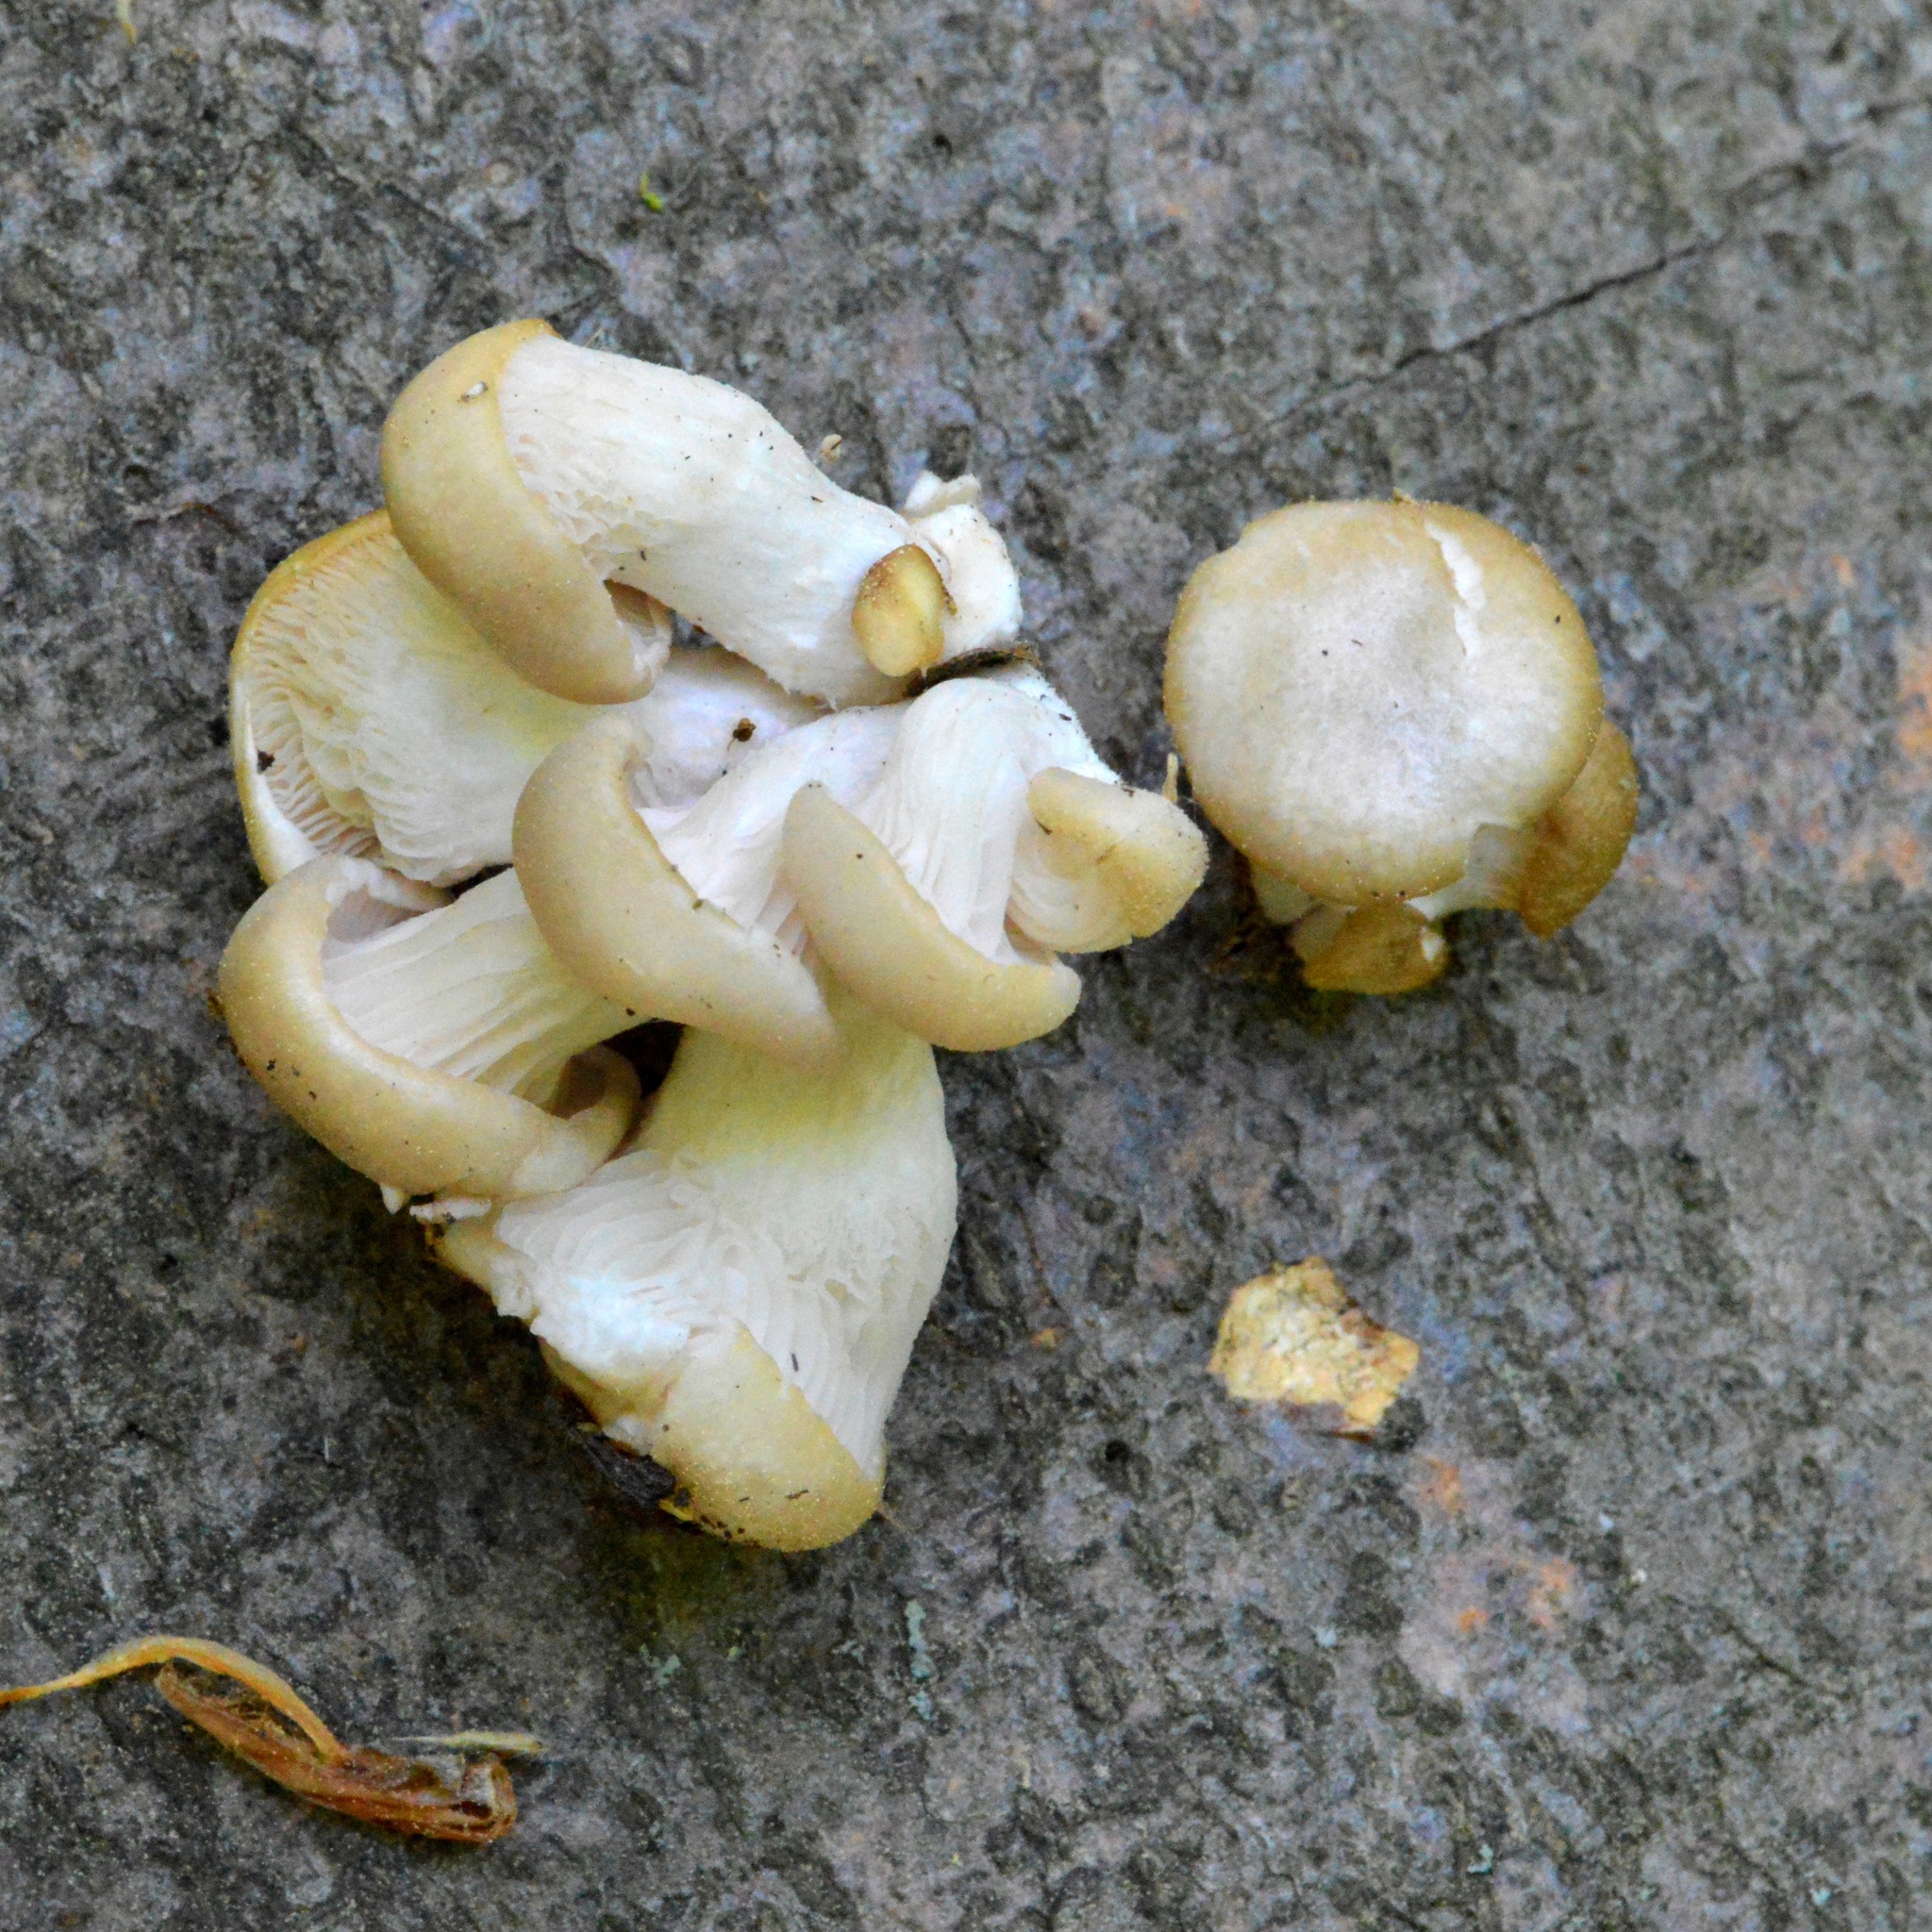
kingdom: Fungi
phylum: Basidiomycota
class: Agaricomycetes
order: Agaricales
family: Pleurotaceae
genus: Pleurotus
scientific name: Pleurotus pulmonarius
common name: Pale oyster
